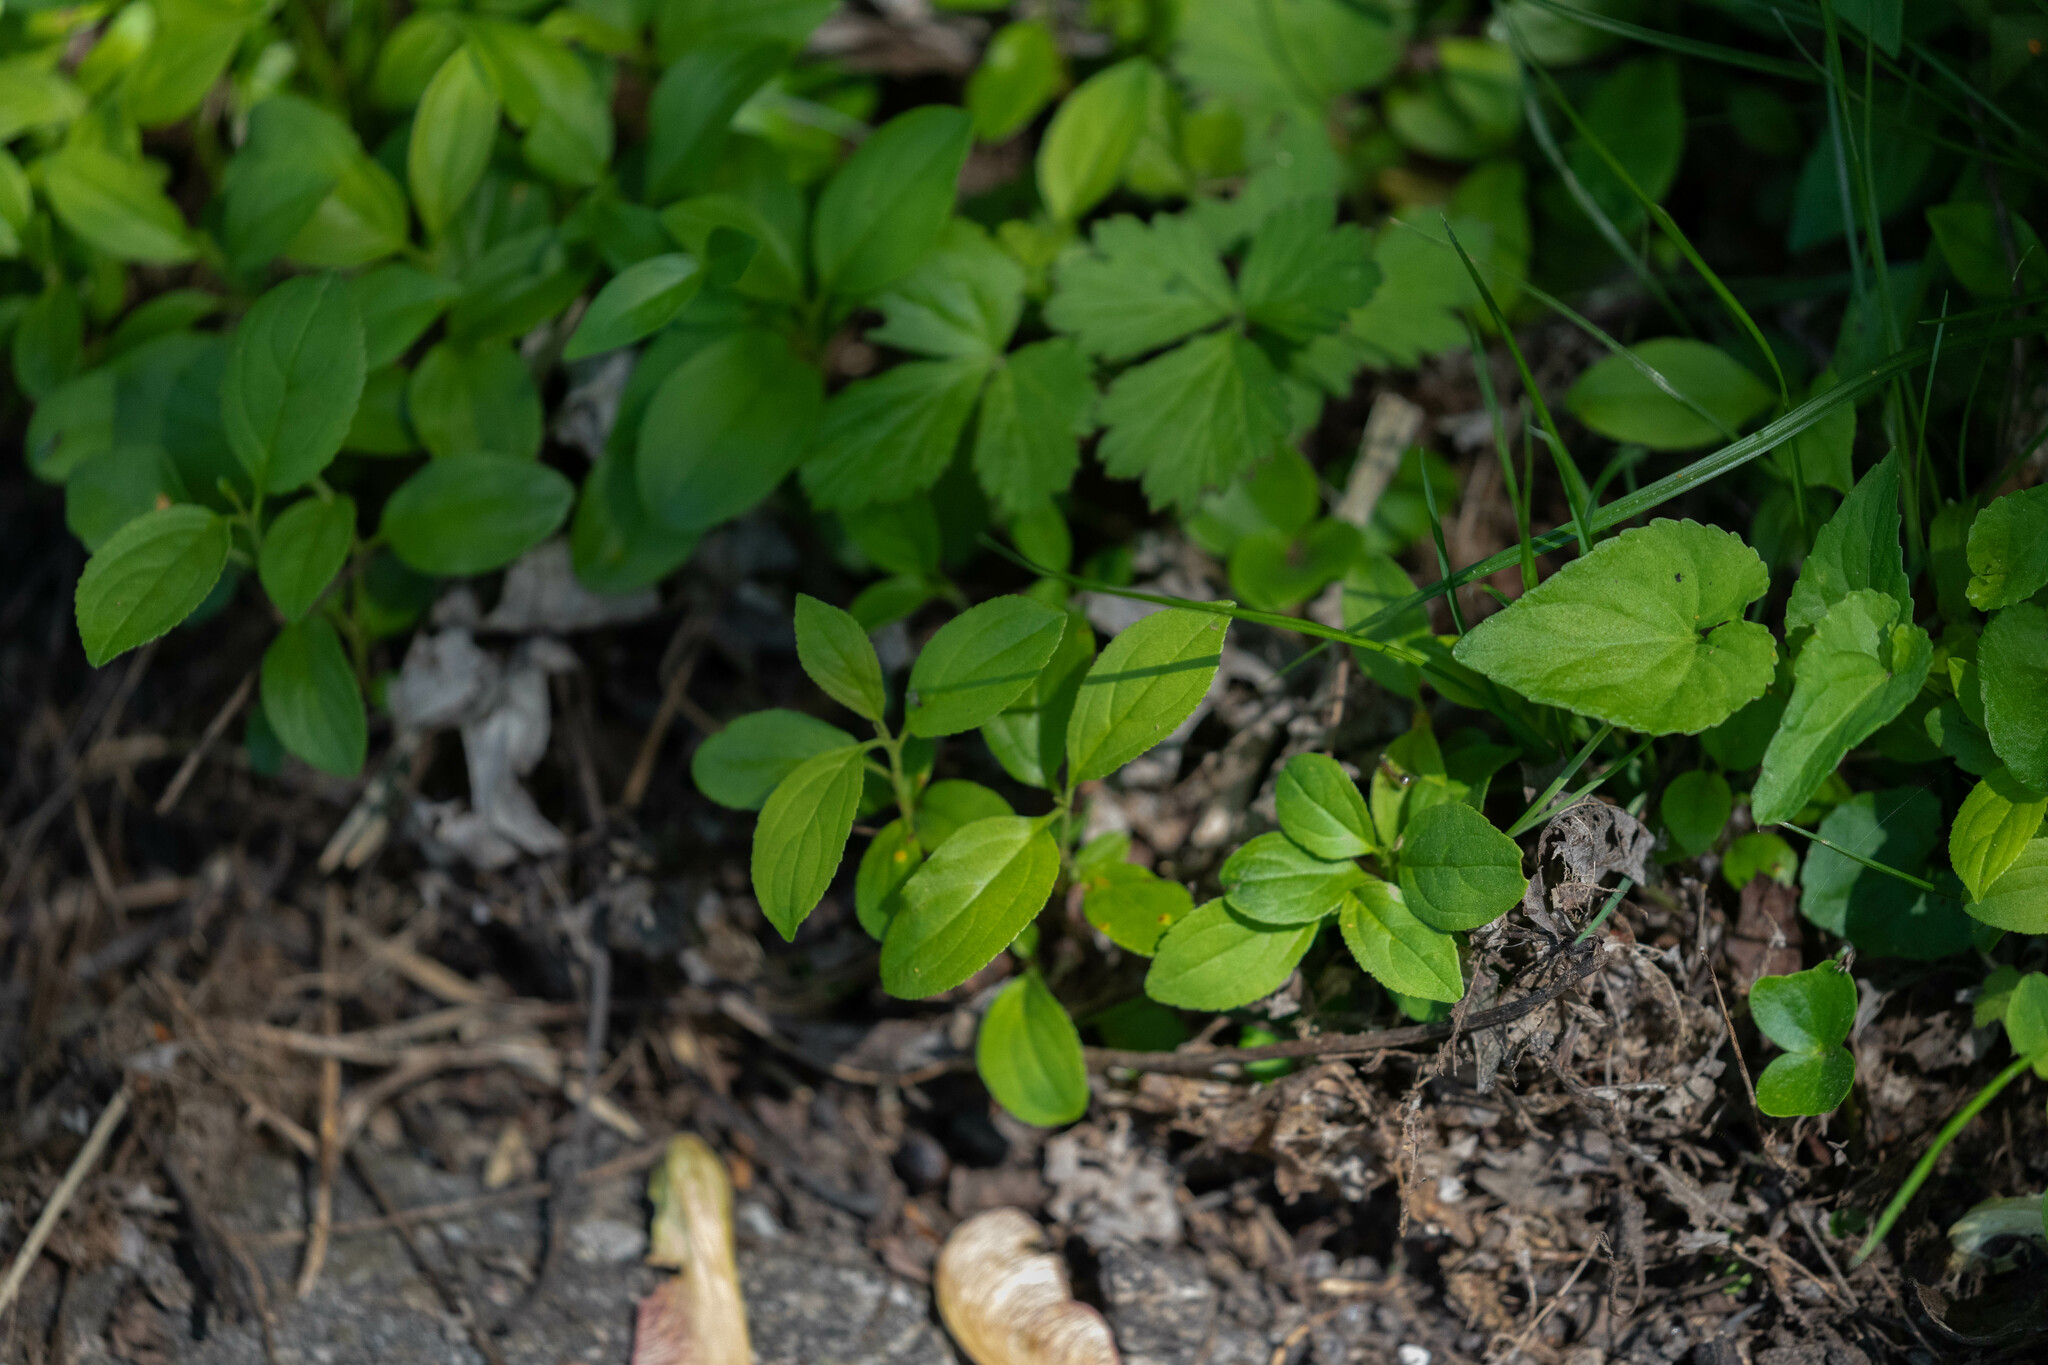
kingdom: Plantae
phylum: Tracheophyta
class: Magnoliopsida
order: Rosales
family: Rhamnaceae
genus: Rhamnus
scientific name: Rhamnus cathartica
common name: Common buckthorn
